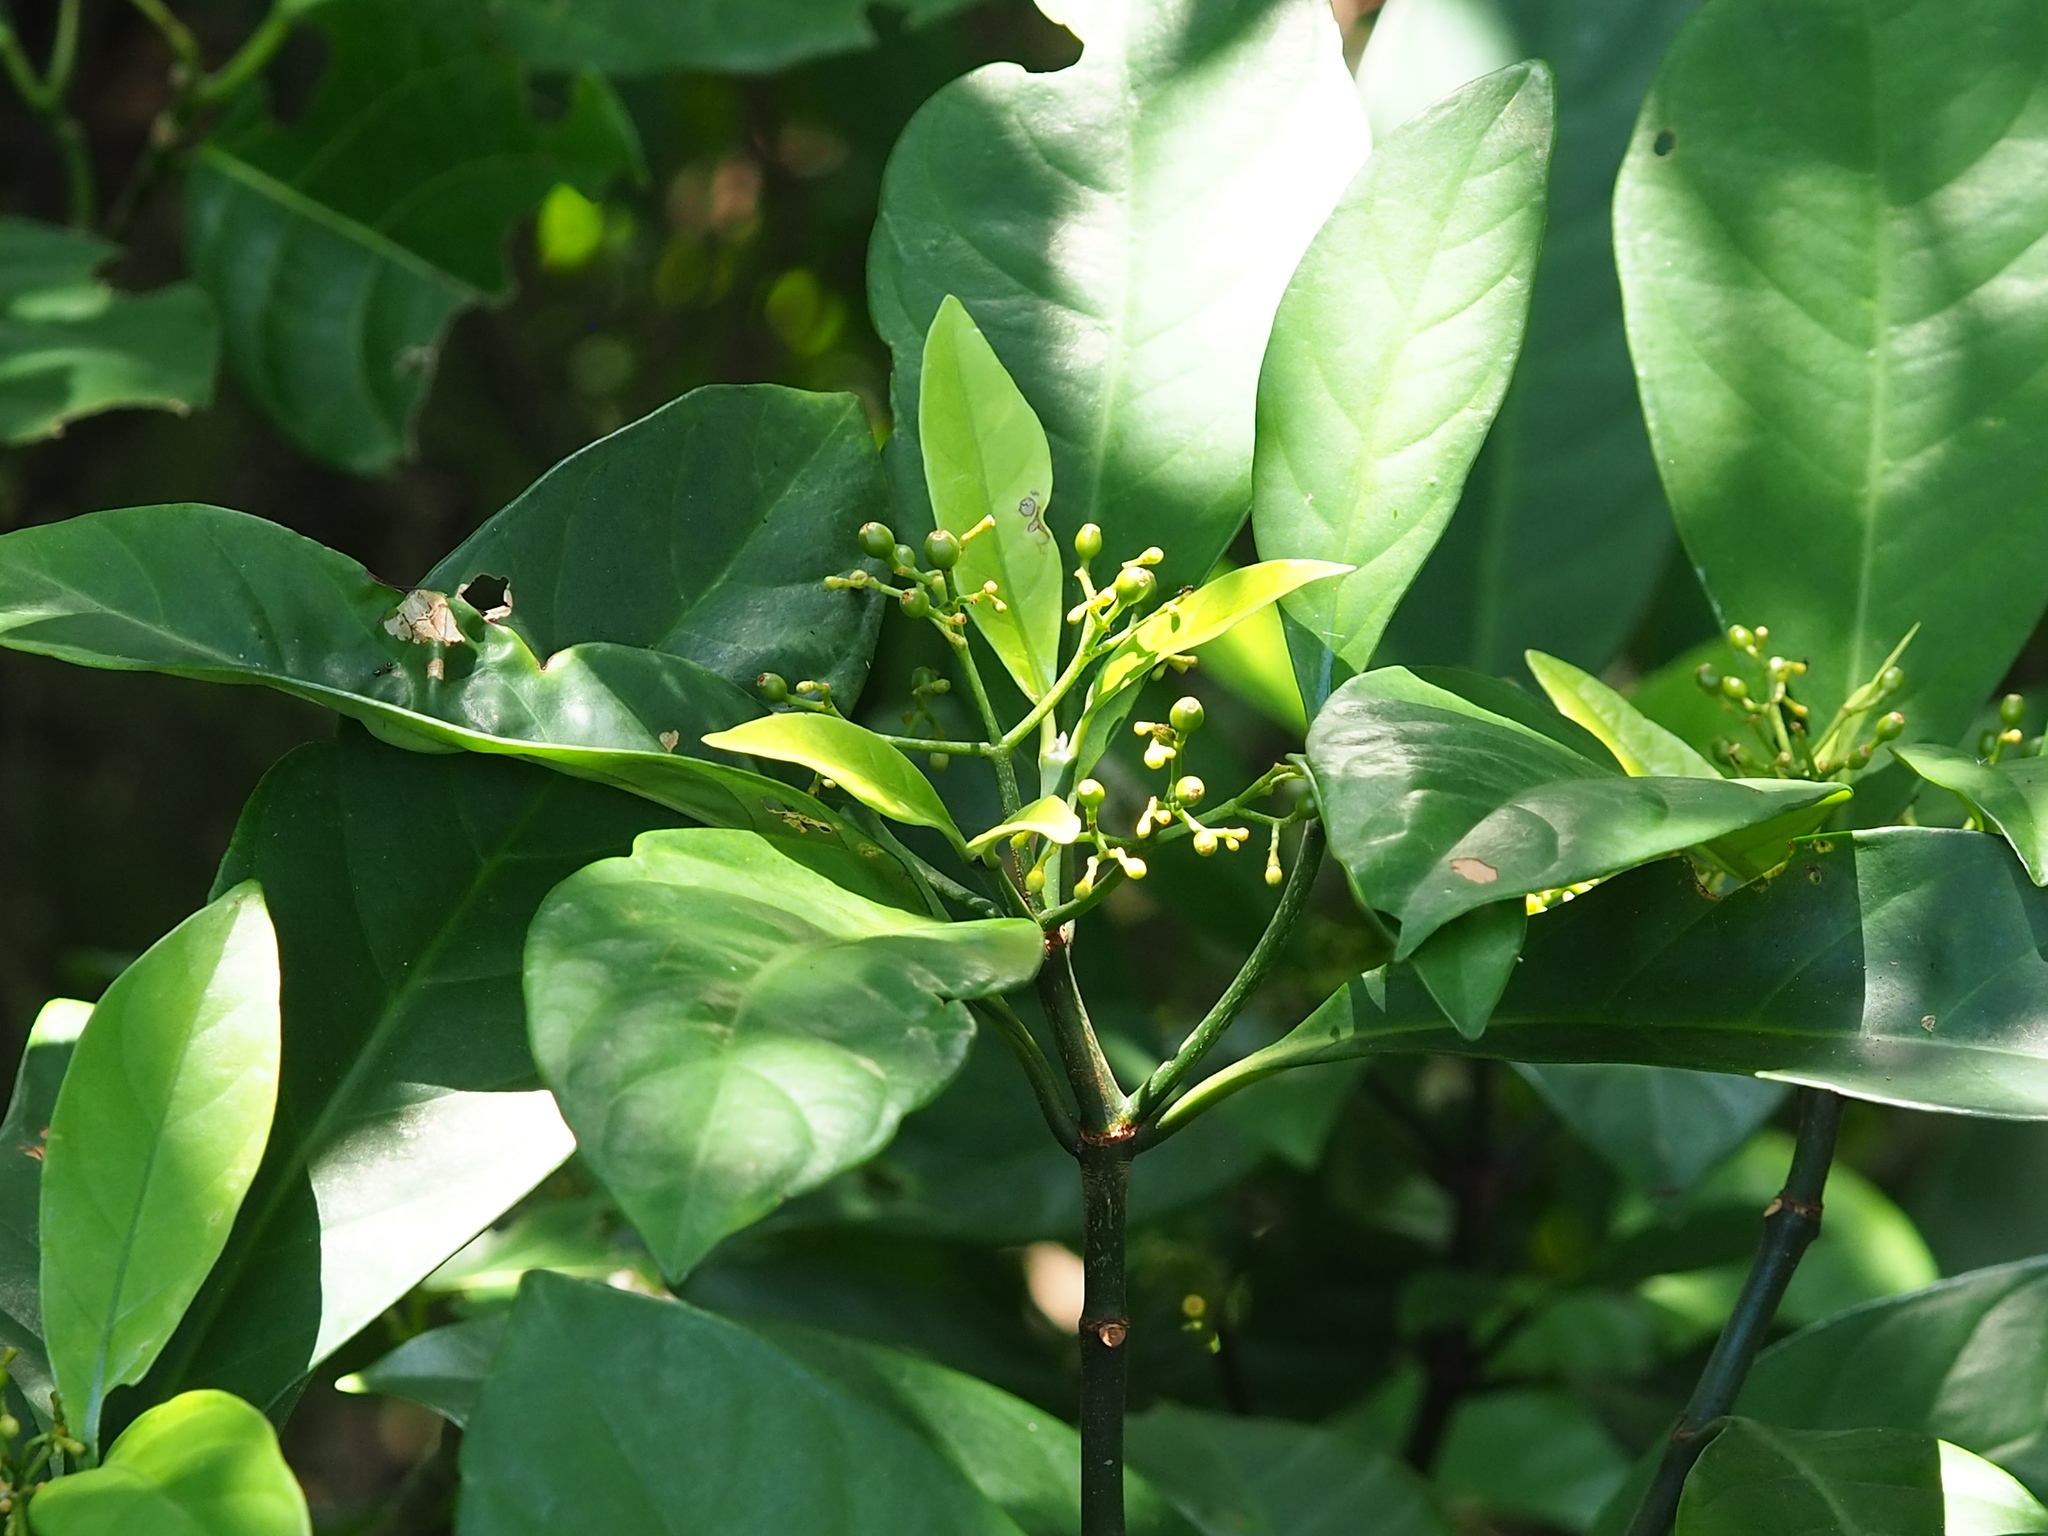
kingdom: Plantae
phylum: Tracheophyta
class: Magnoliopsida
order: Gentianales
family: Rubiaceae
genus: Psychotria
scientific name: Psychotria asiatica
